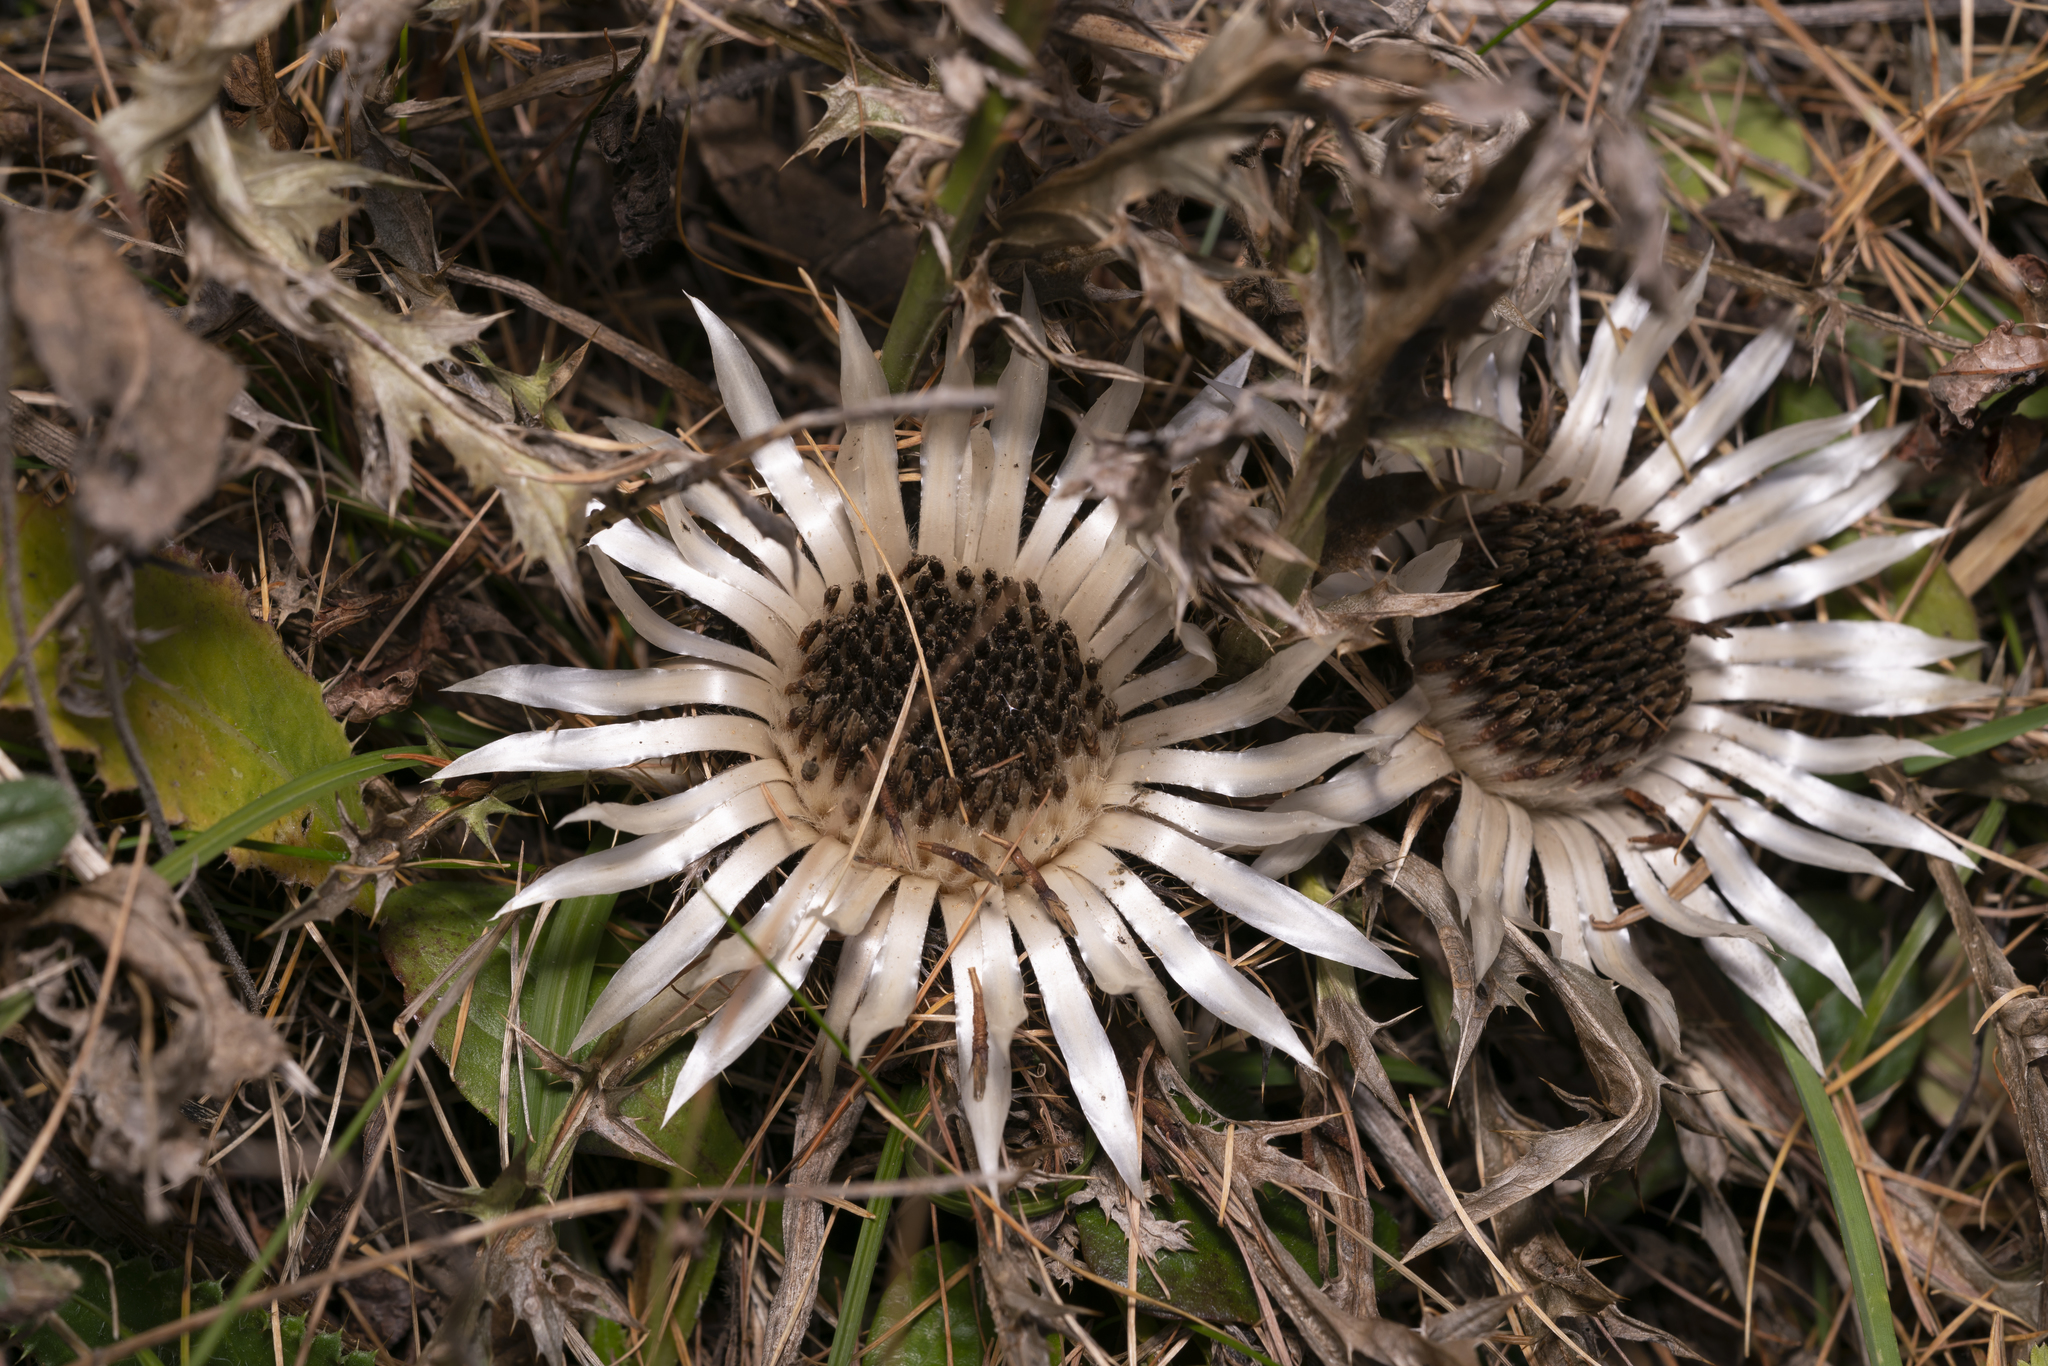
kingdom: Plantae
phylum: Tracheophyta
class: Magnoliopsida
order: Asterales
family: Asteraceae
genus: Carlina
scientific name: Carlina acaulis
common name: Stemless carline thistle
